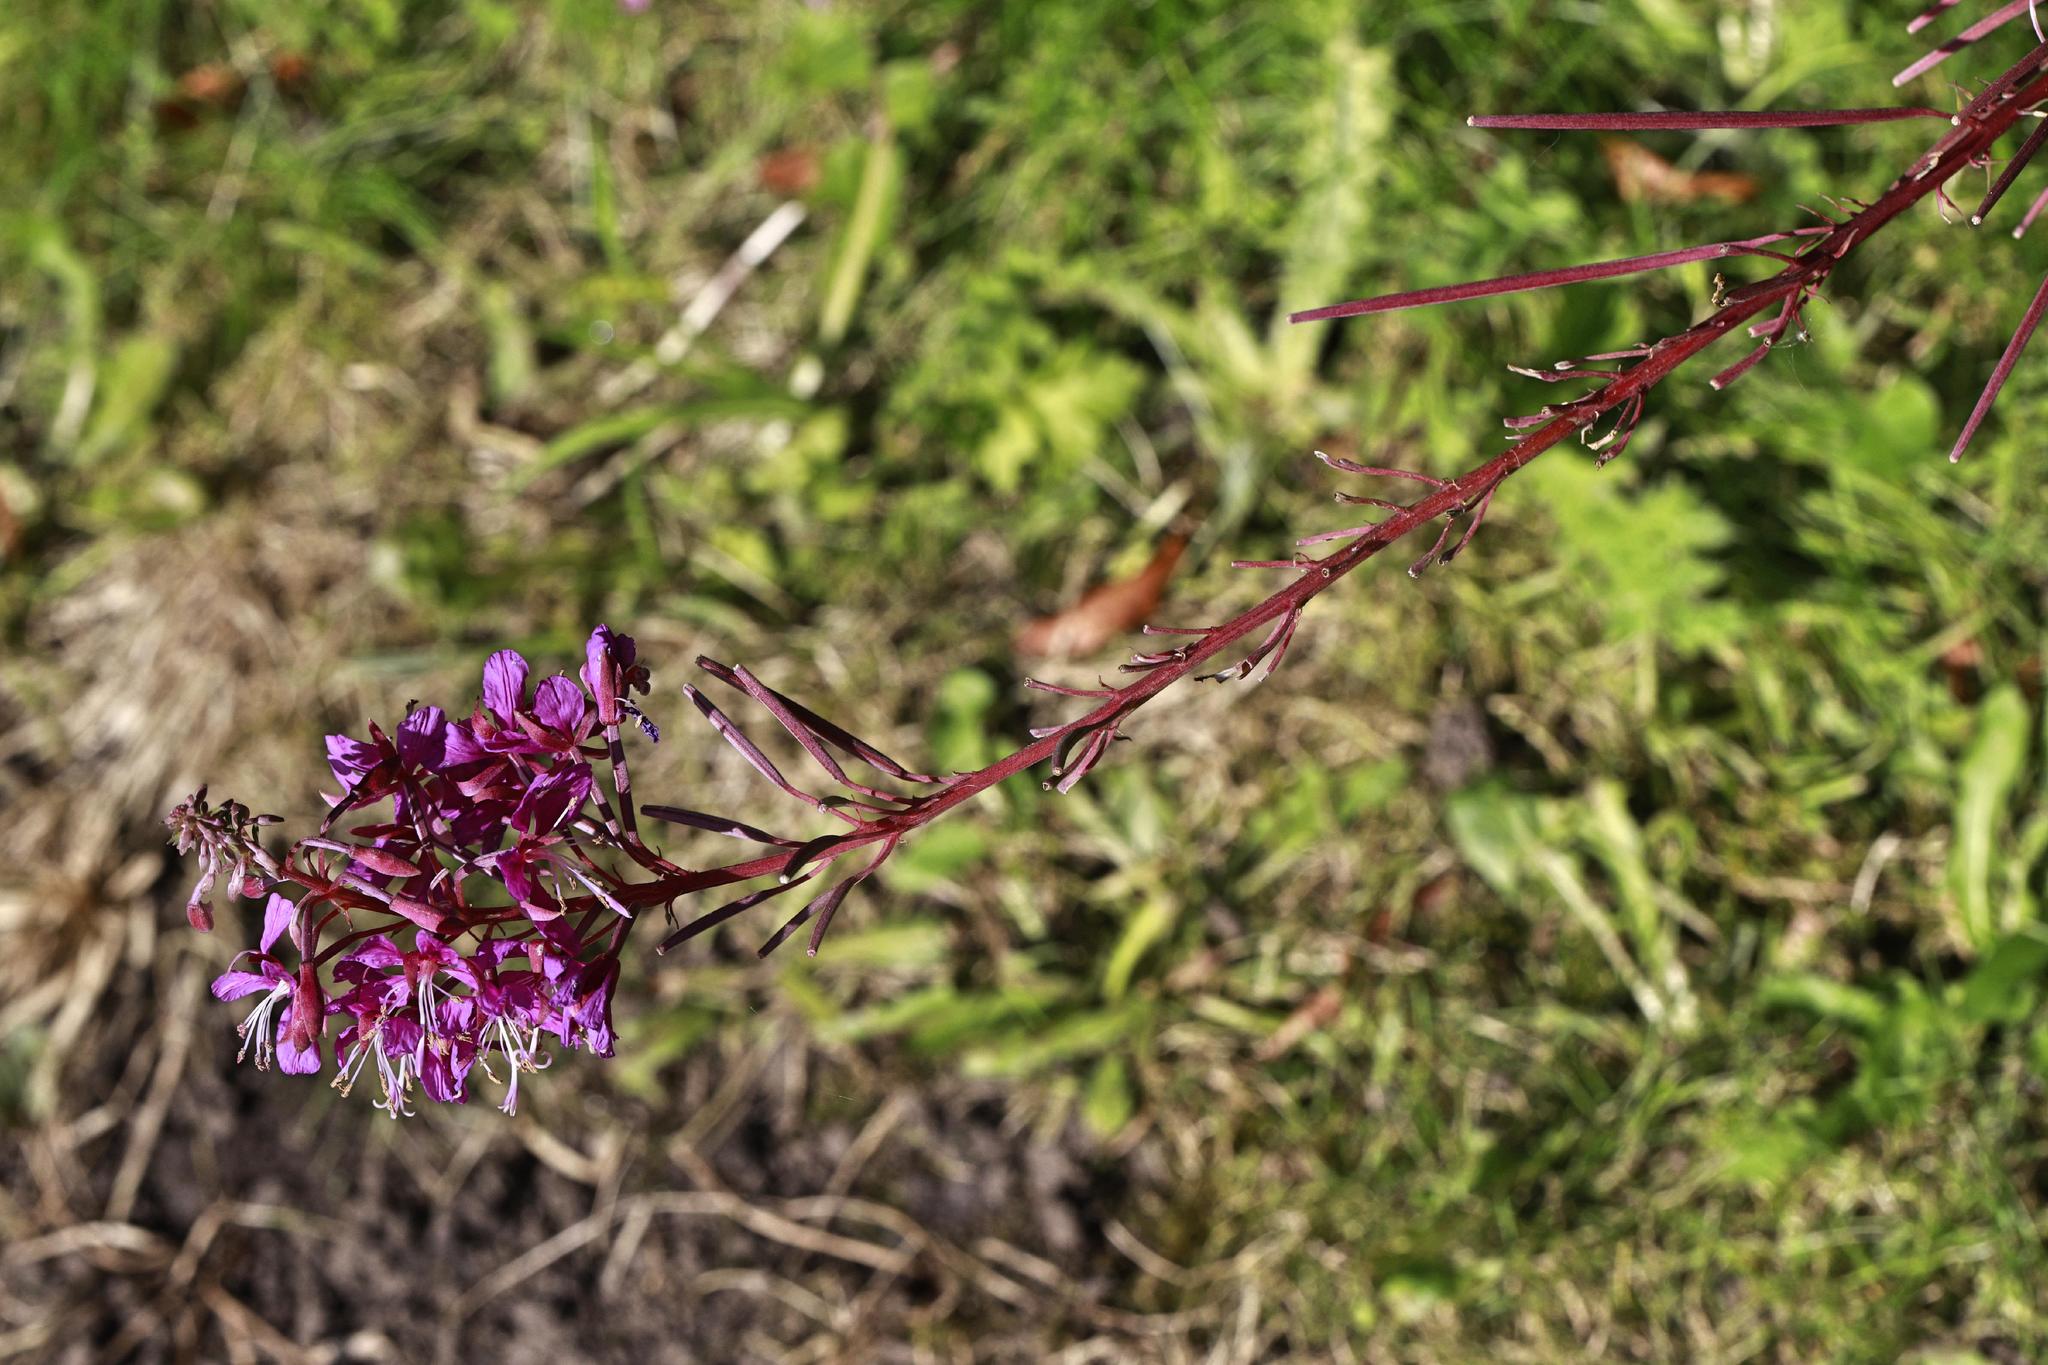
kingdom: Plantae
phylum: Tracheophyta
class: Magnoliopsida
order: Myrtales
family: Onagraceae
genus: Chamaenerion
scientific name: Chamaenerion angustifolium
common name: Fireweed
